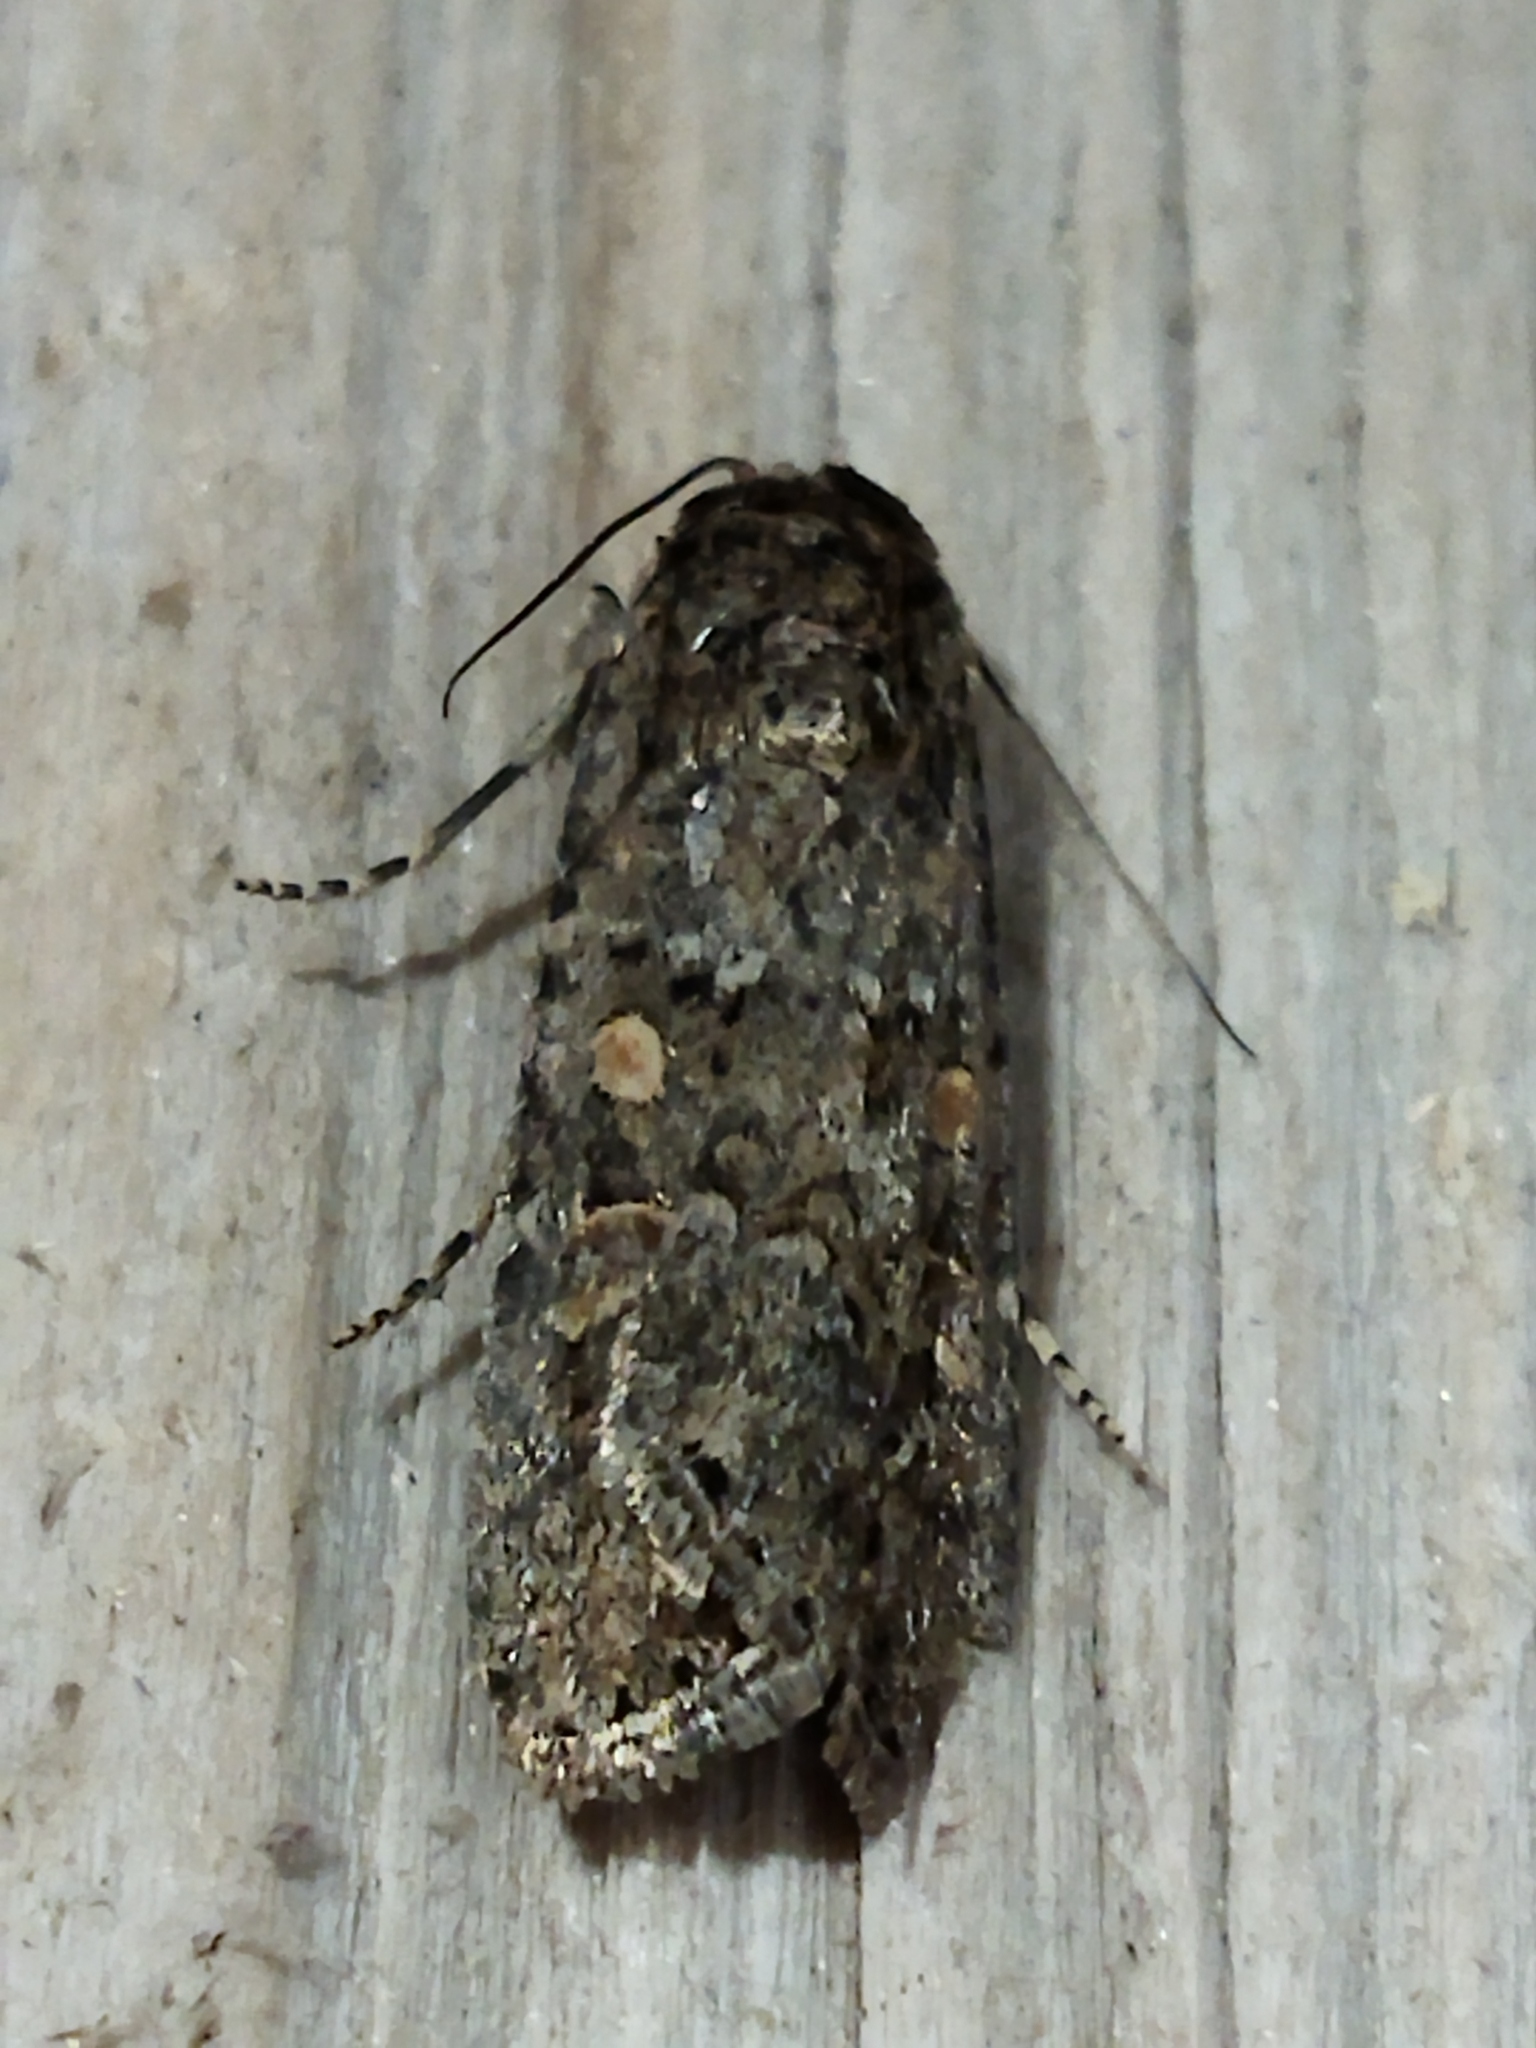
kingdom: Animalia
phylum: Arthropoda
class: Insecta
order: Lepidoptera
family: Noctuidae
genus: Spodoptera
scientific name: Spodoptera exigua
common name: Beet armyworm
